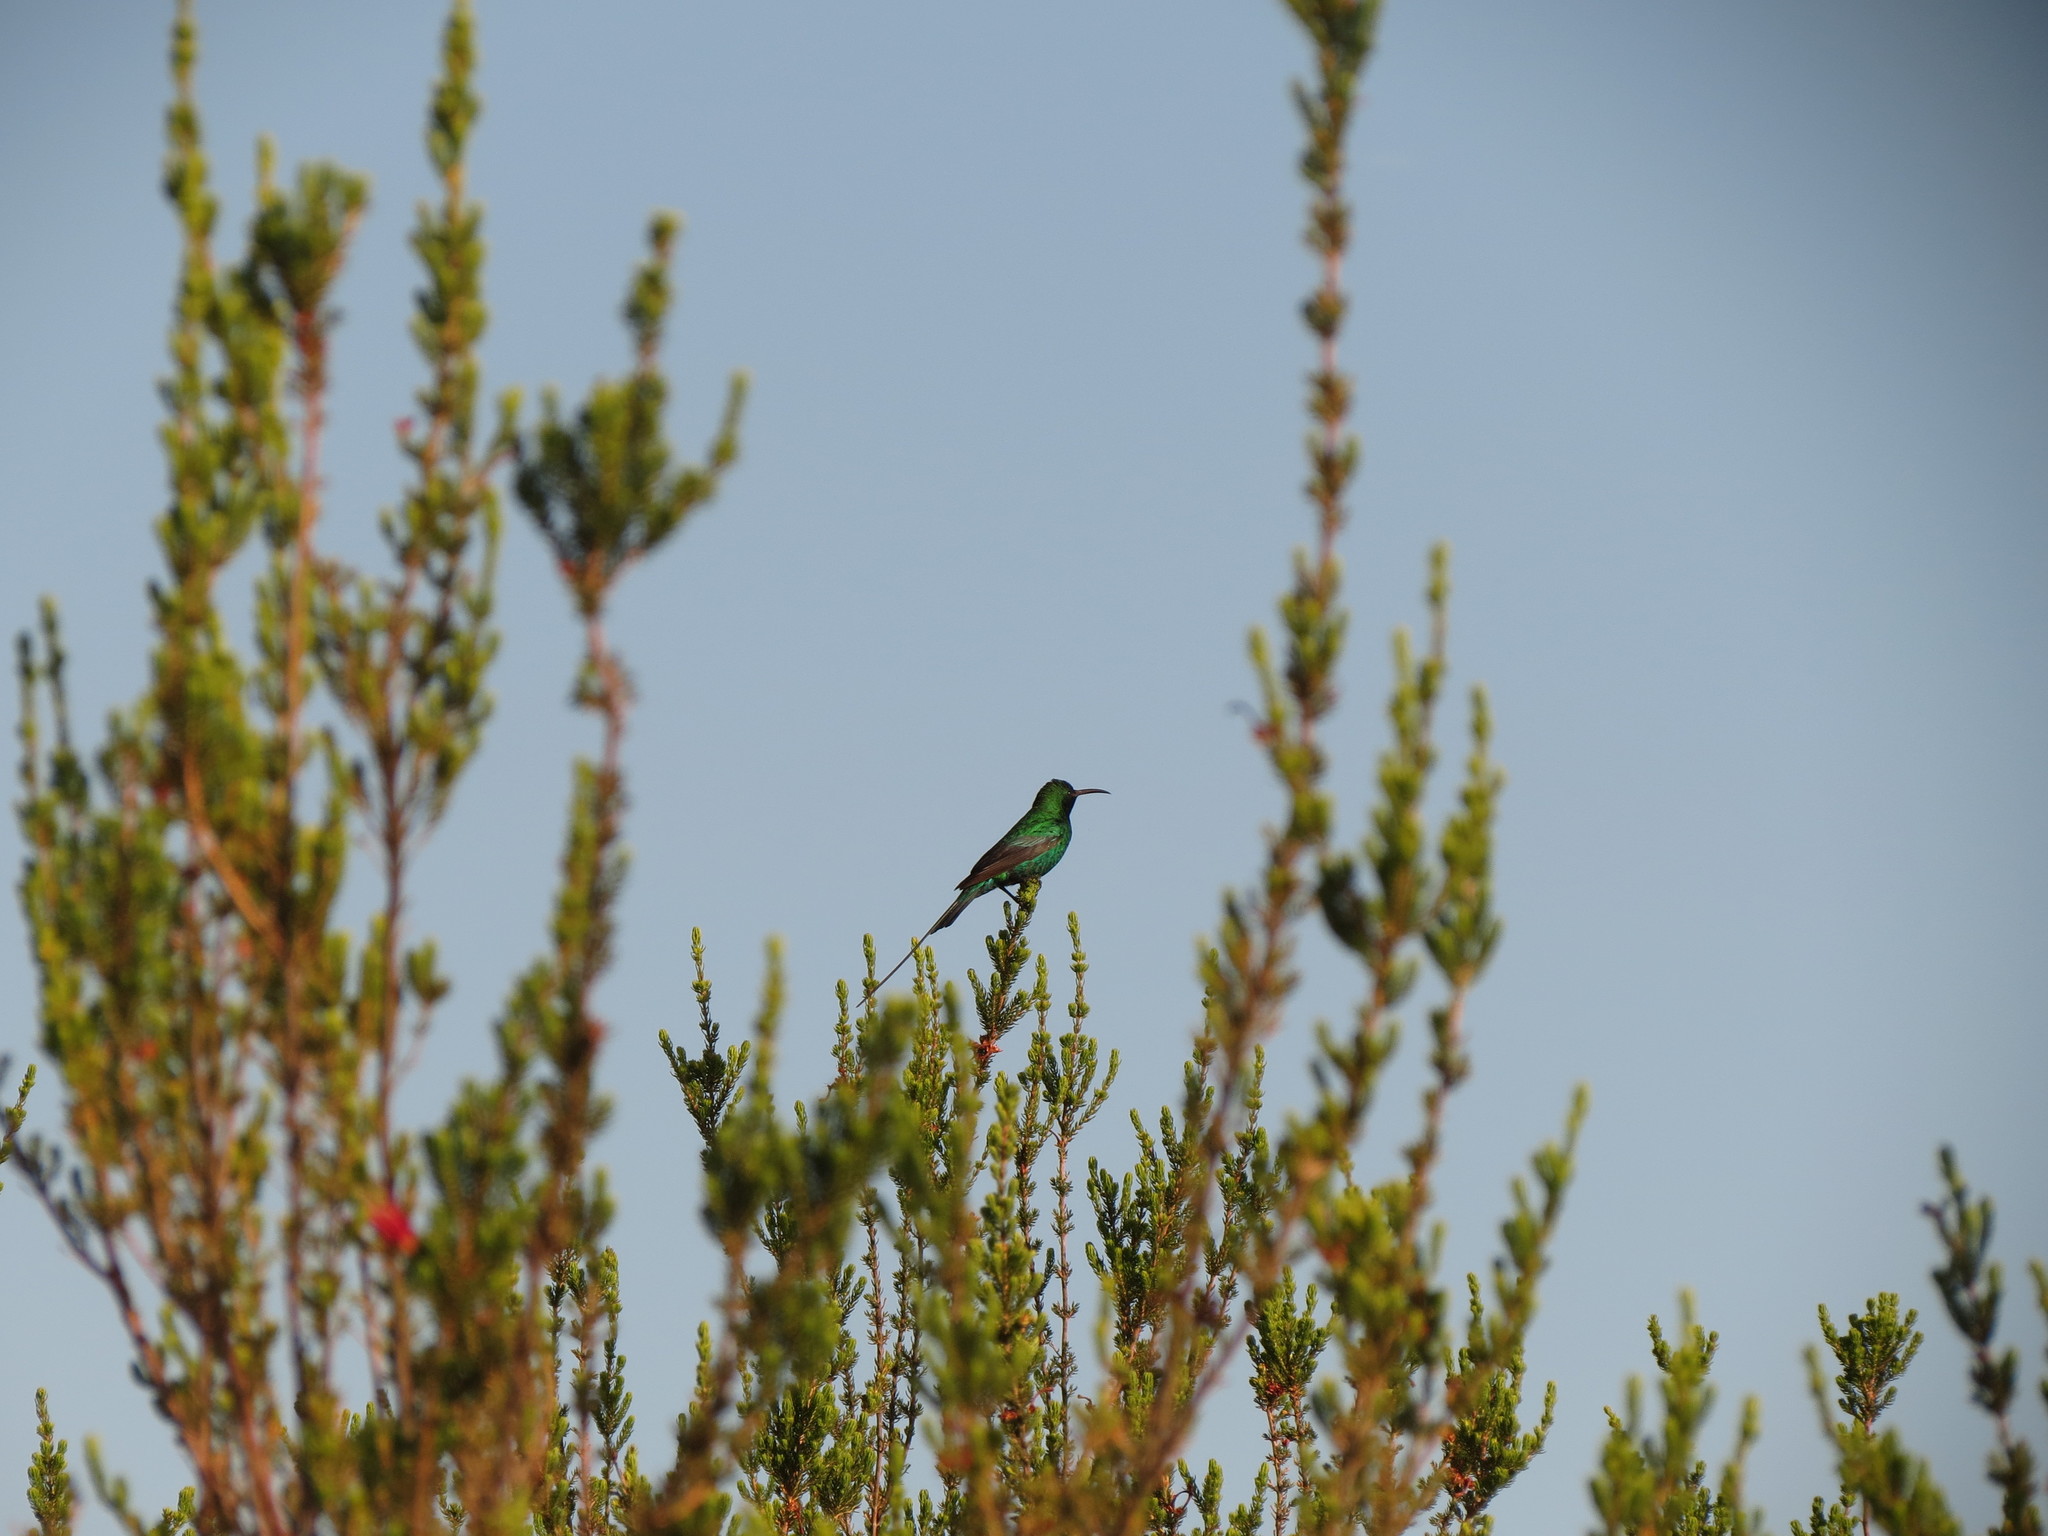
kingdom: Animalia
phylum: Chordata
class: Aves
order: Passeriformes
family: Nectariniidae
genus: Nectarinia
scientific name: Nectarinia famosa
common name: Malachite sunbird
